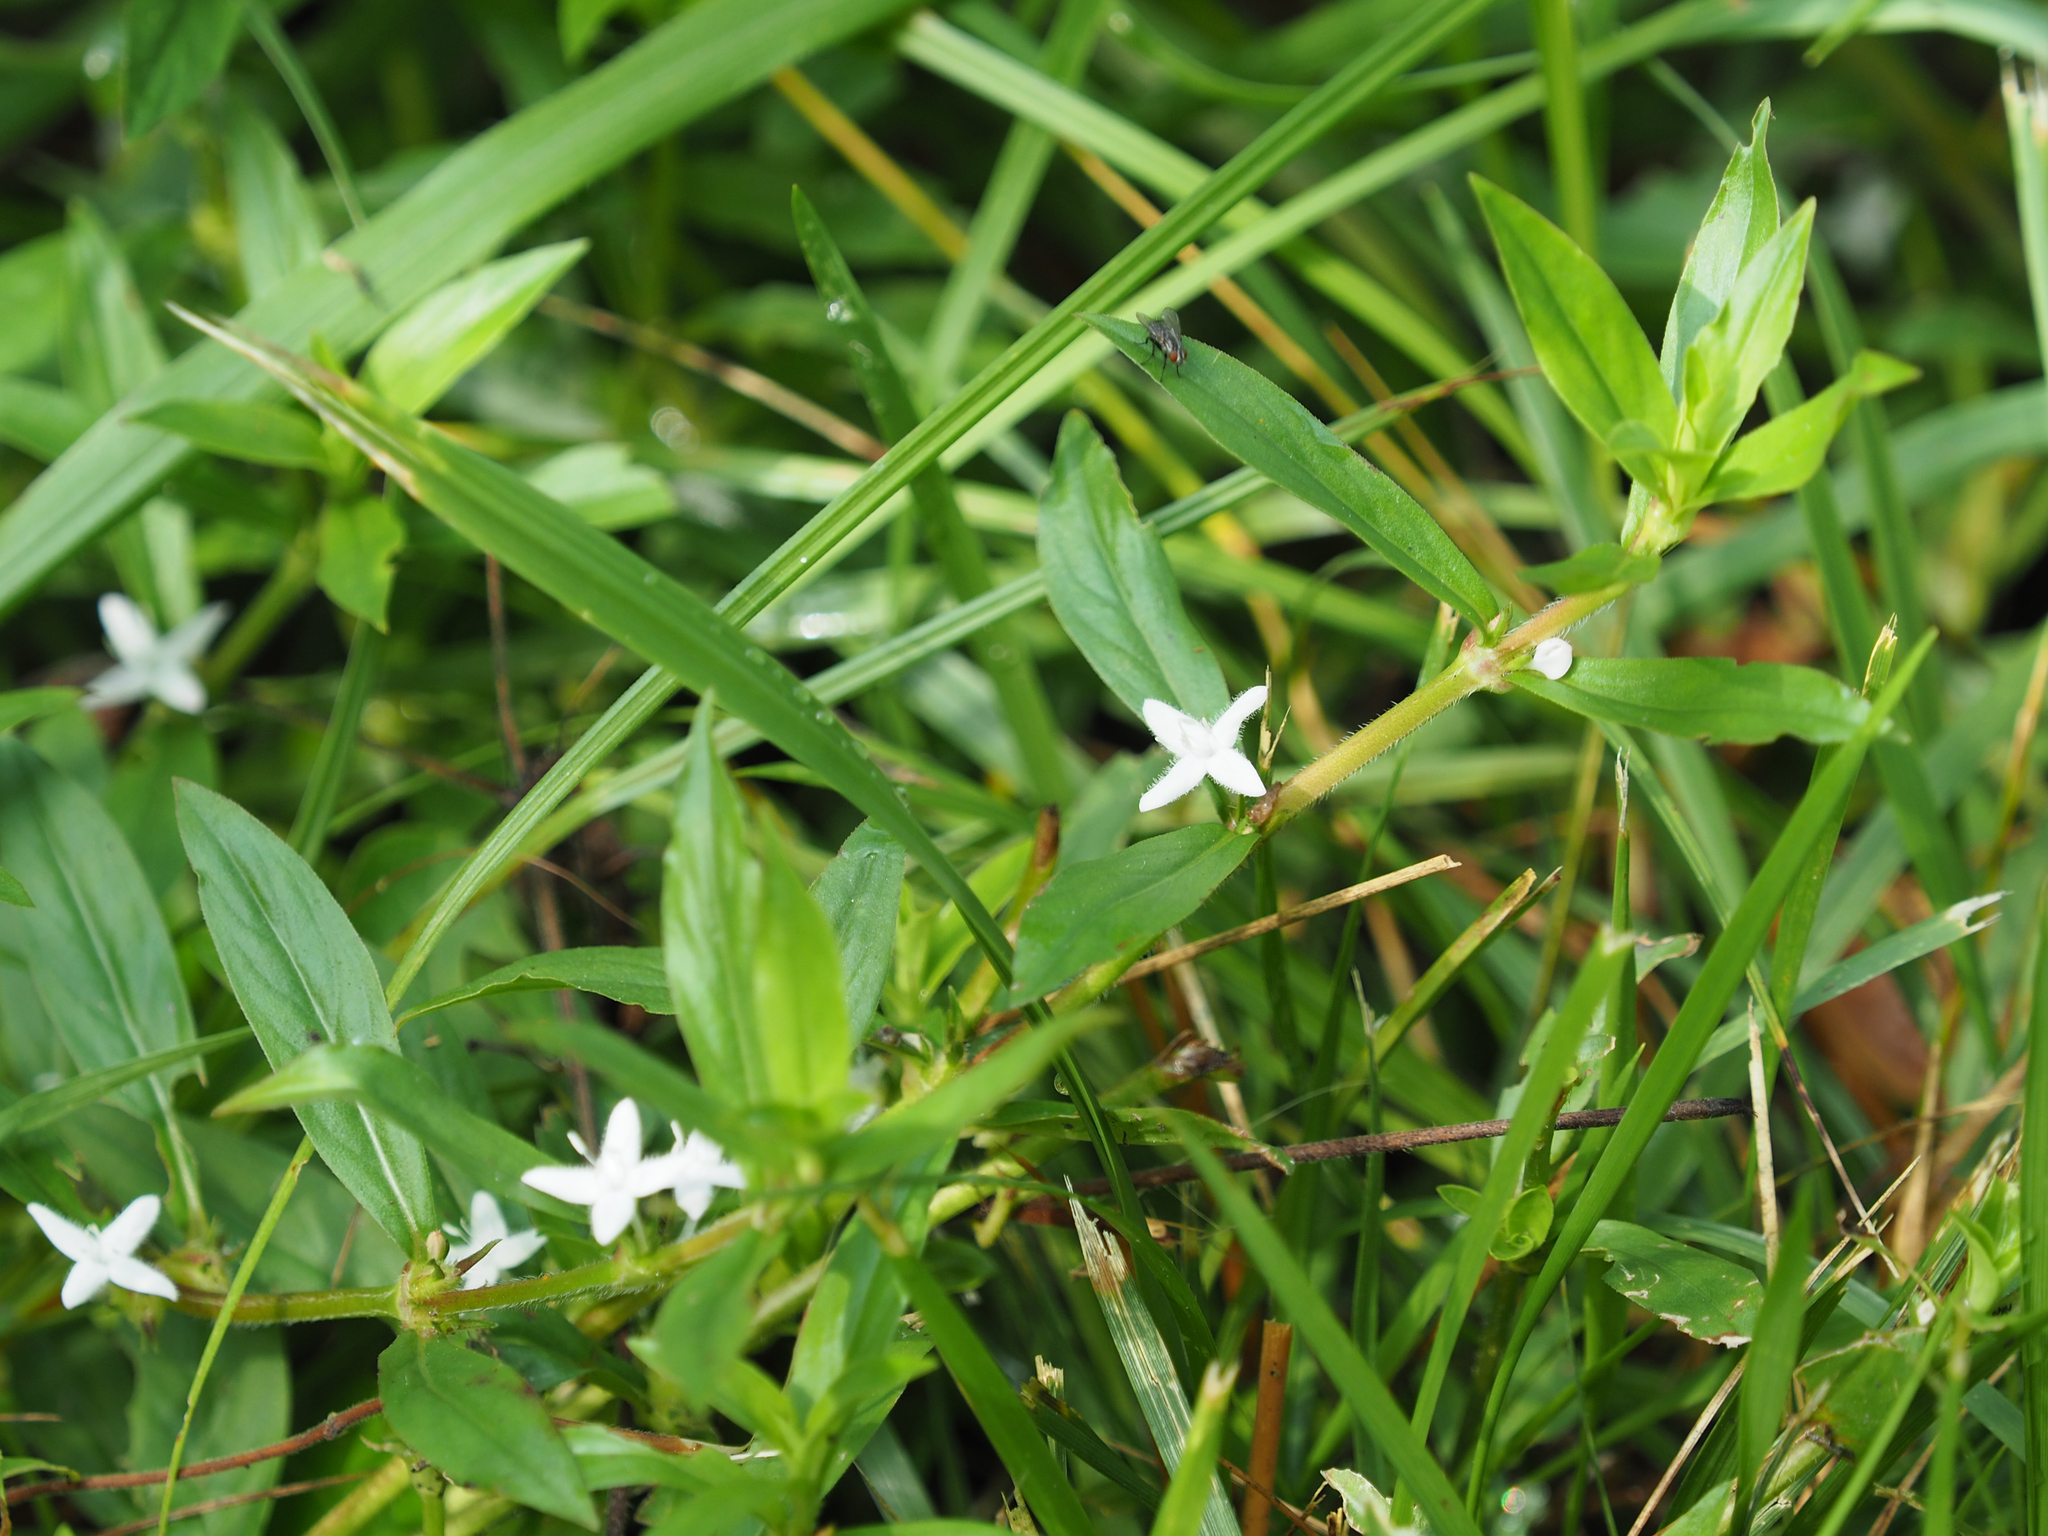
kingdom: Plantae
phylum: Tracheophyta
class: Magnoliopsida
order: Gentianales
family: Rubiaceae
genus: Diodia
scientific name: Diodia virginiana
